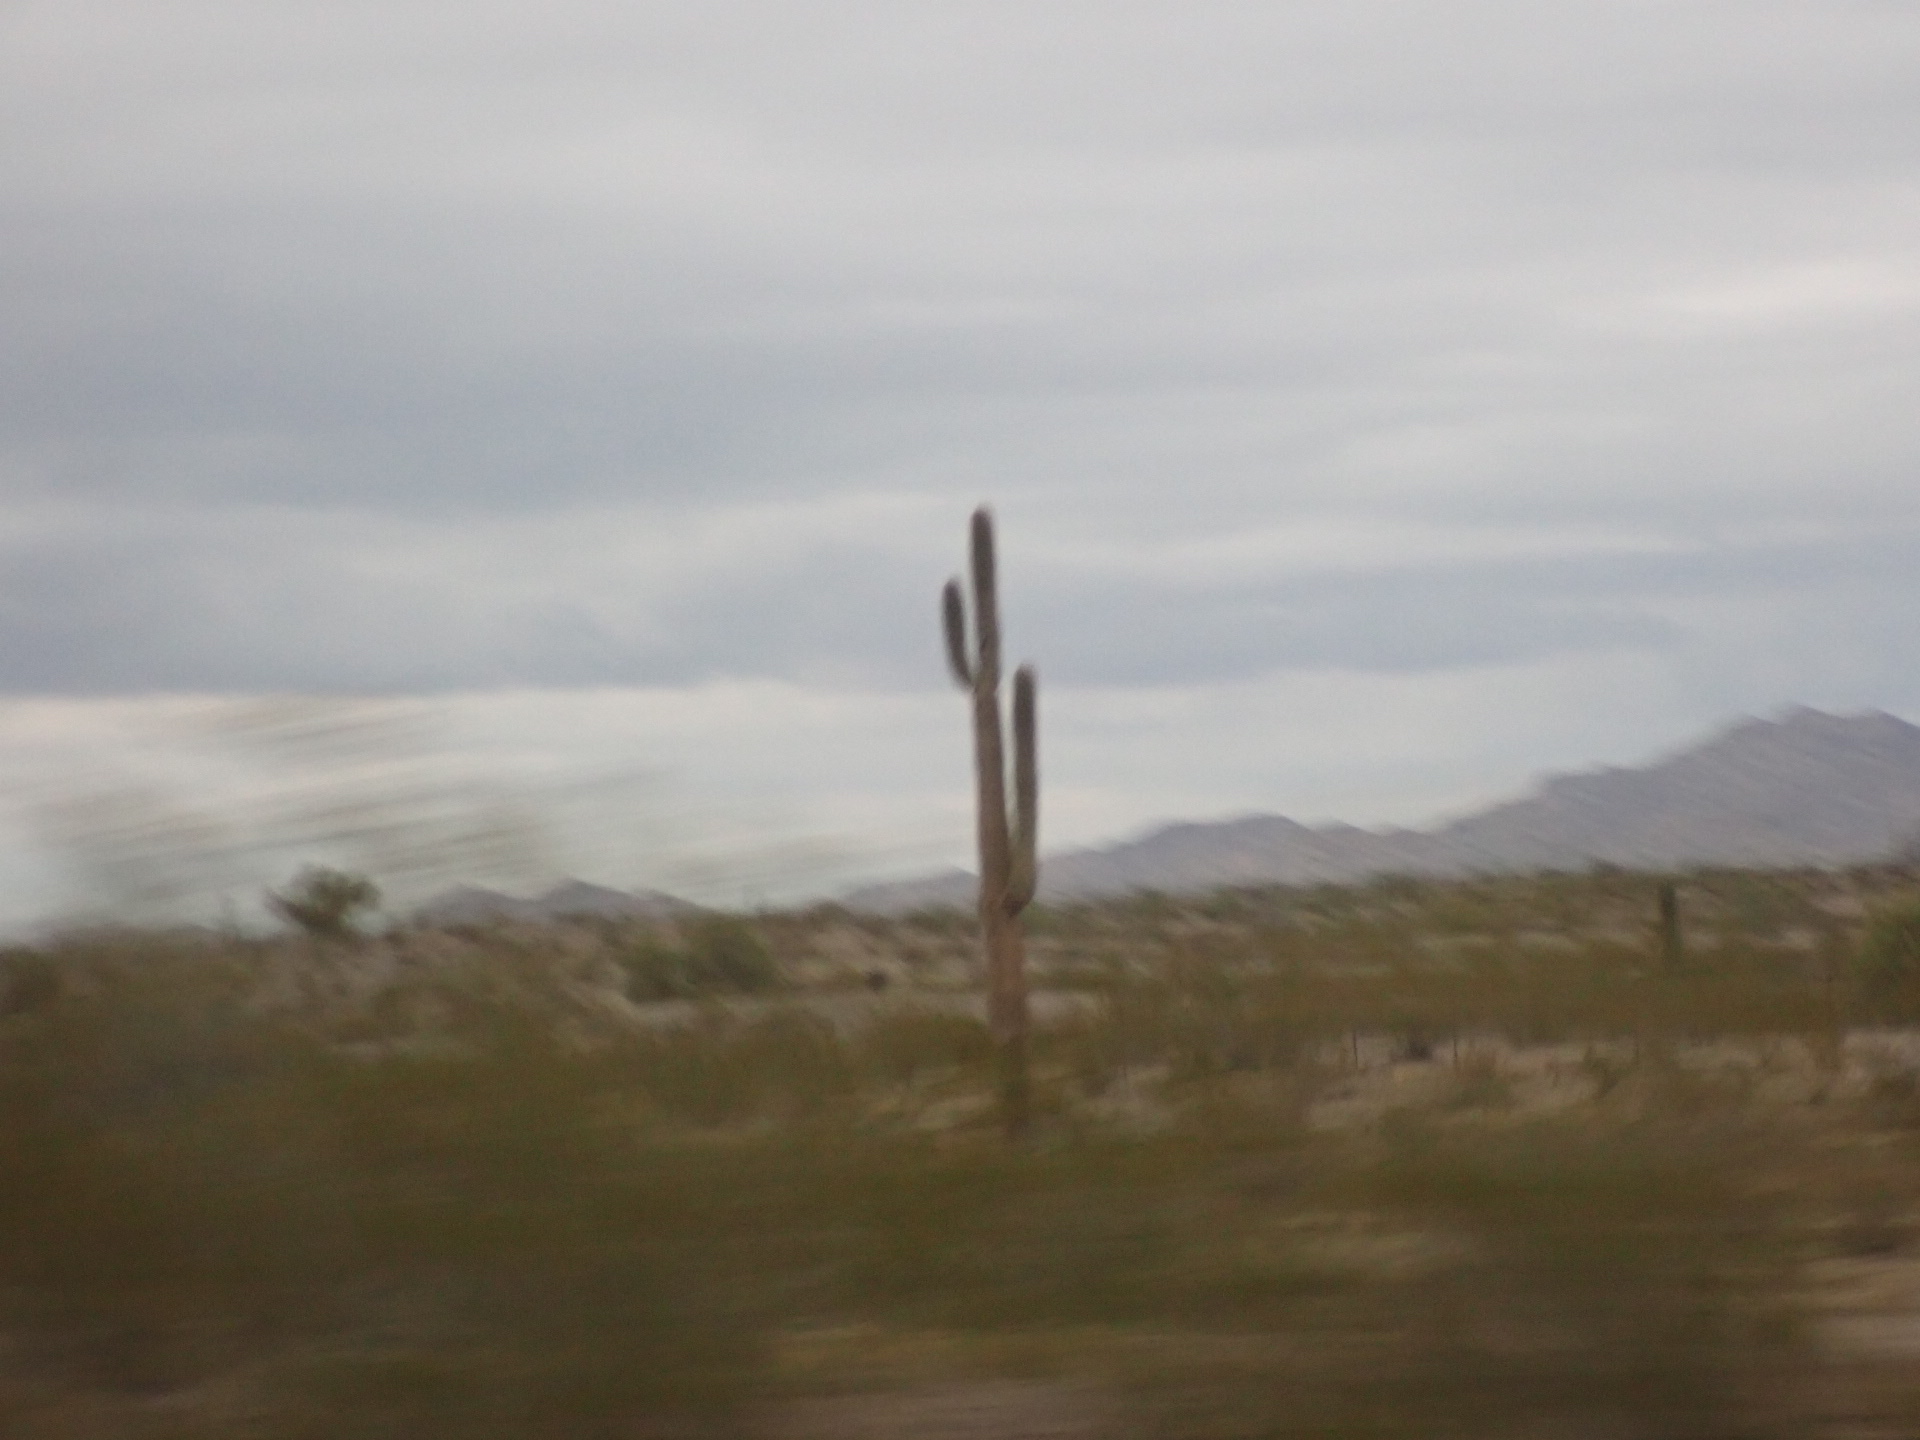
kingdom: Plantae
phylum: Tracheophyta
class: Magnoliopsida
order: Caryophyllales
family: Cactaceae
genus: Carnegiea
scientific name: Carnegiea gigantea
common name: Saguaro
